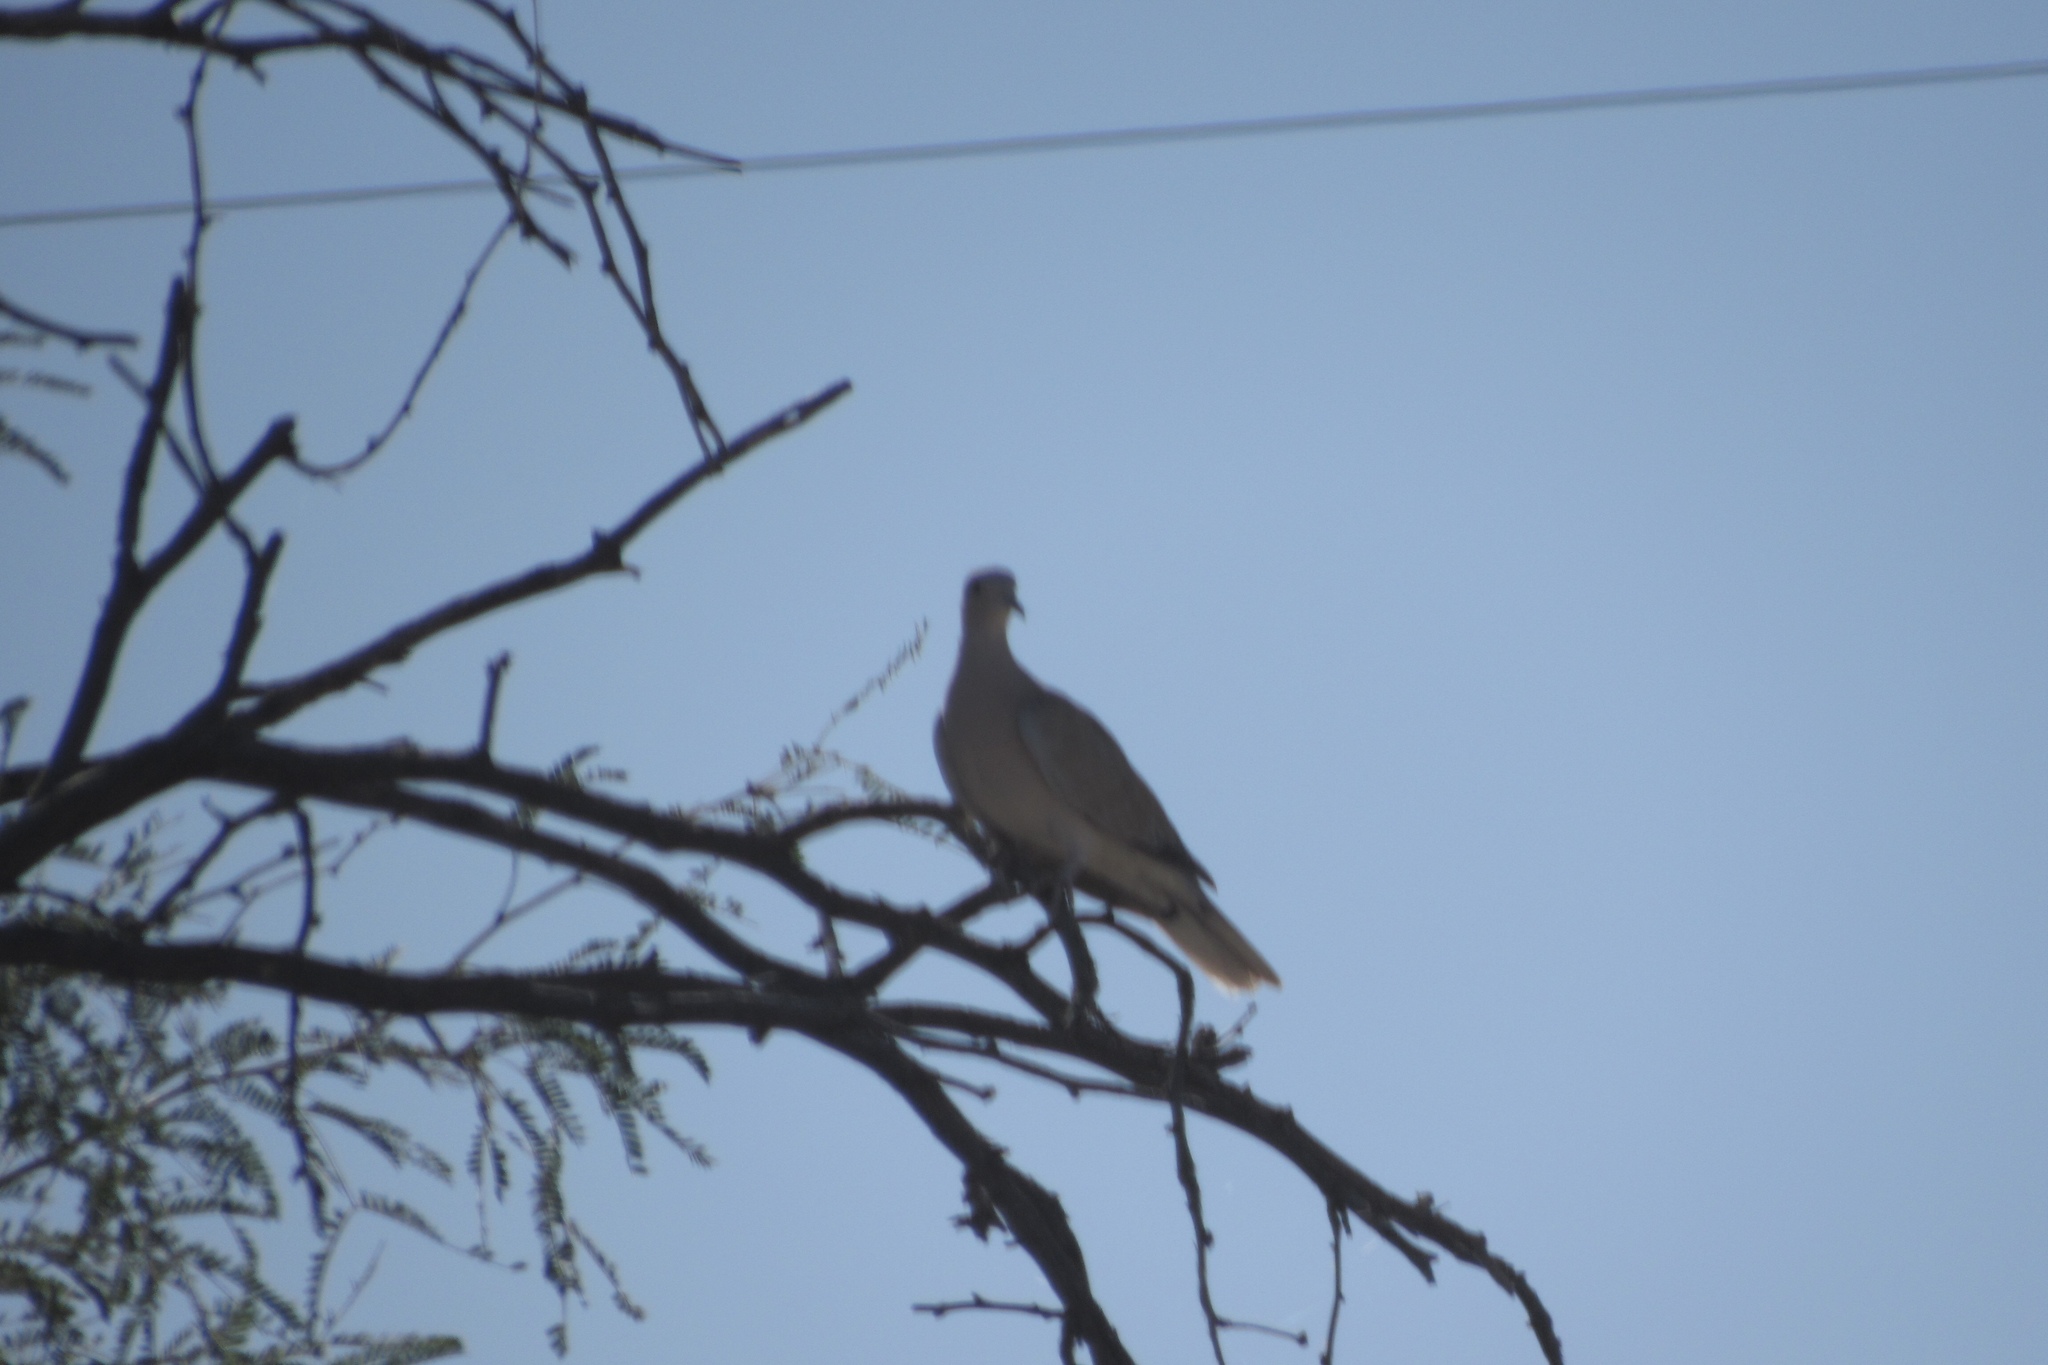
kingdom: Animalia
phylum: Chordata
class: Aves
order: Columbiformes
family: Columbidae
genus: Streptopelia
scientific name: Streptopelia decaocto
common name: Eurasian collared dove
